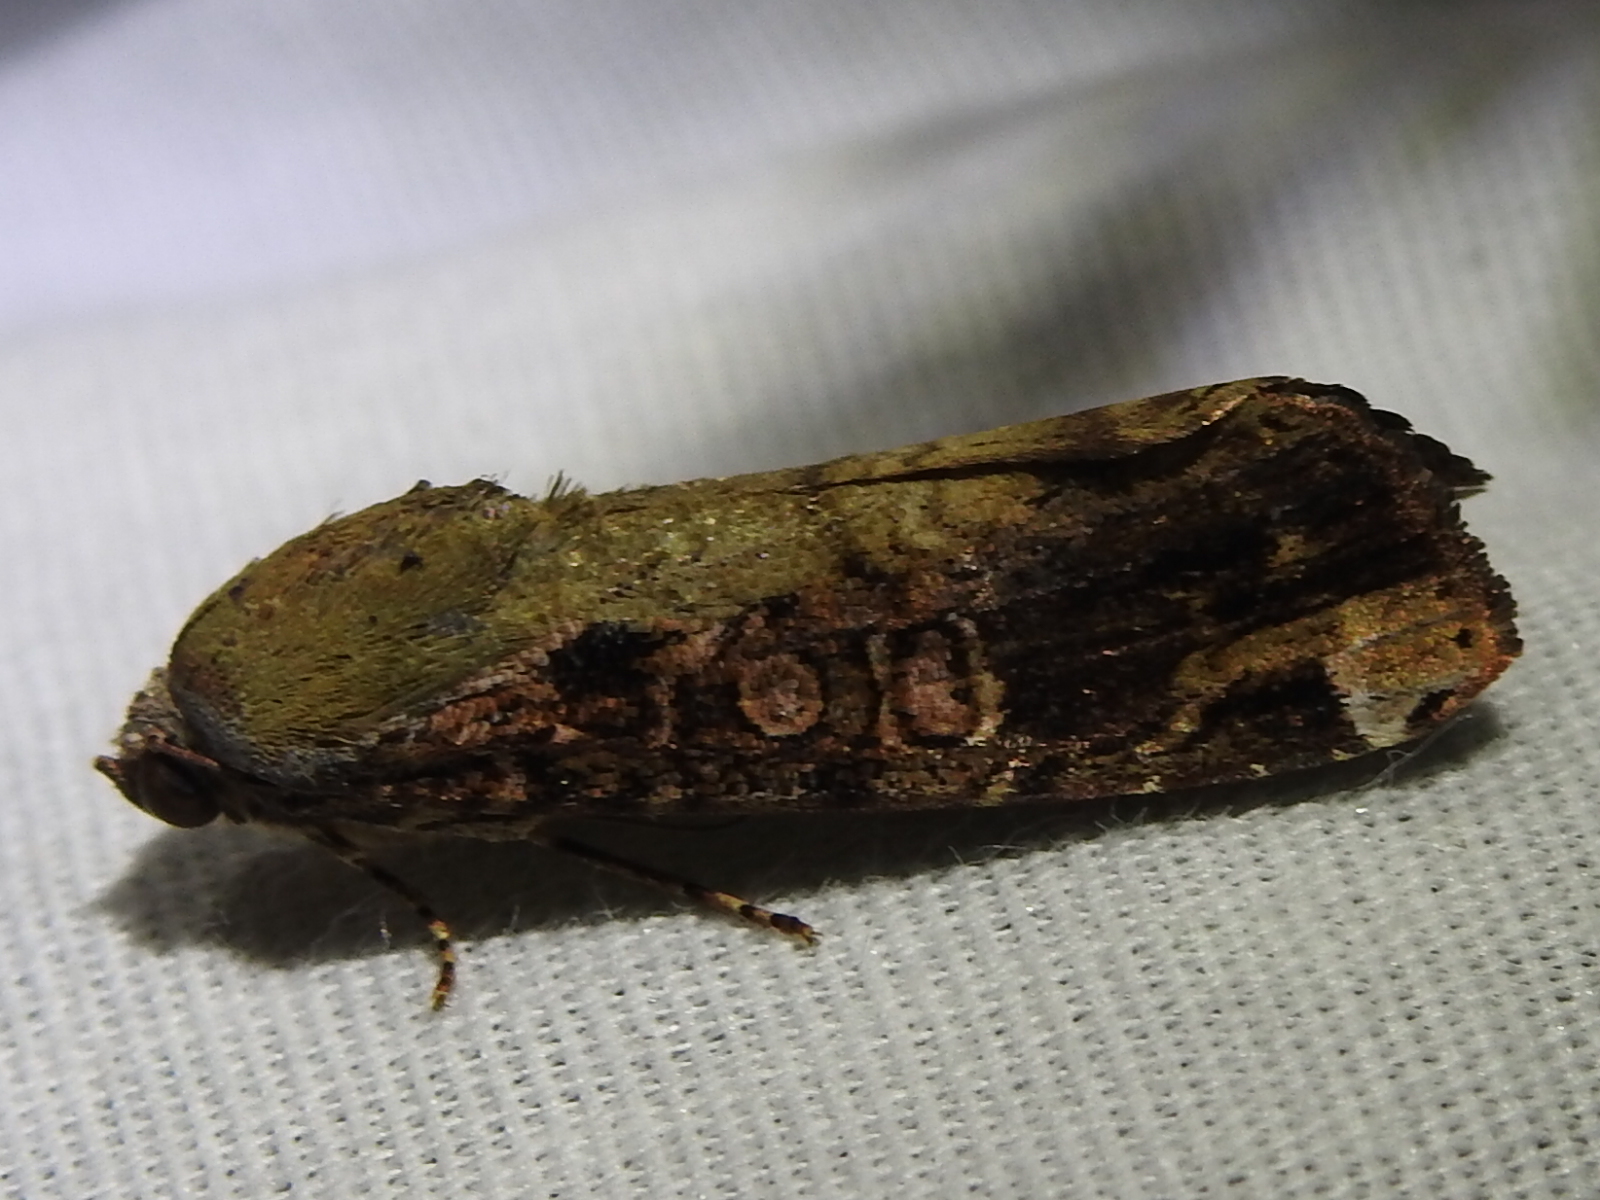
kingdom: Animalia
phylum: Arthropoda
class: Insecta
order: Lepidoptera
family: Noctuidae
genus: Magusa
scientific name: Magusa divaricata
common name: Orb narrow-winged moth
